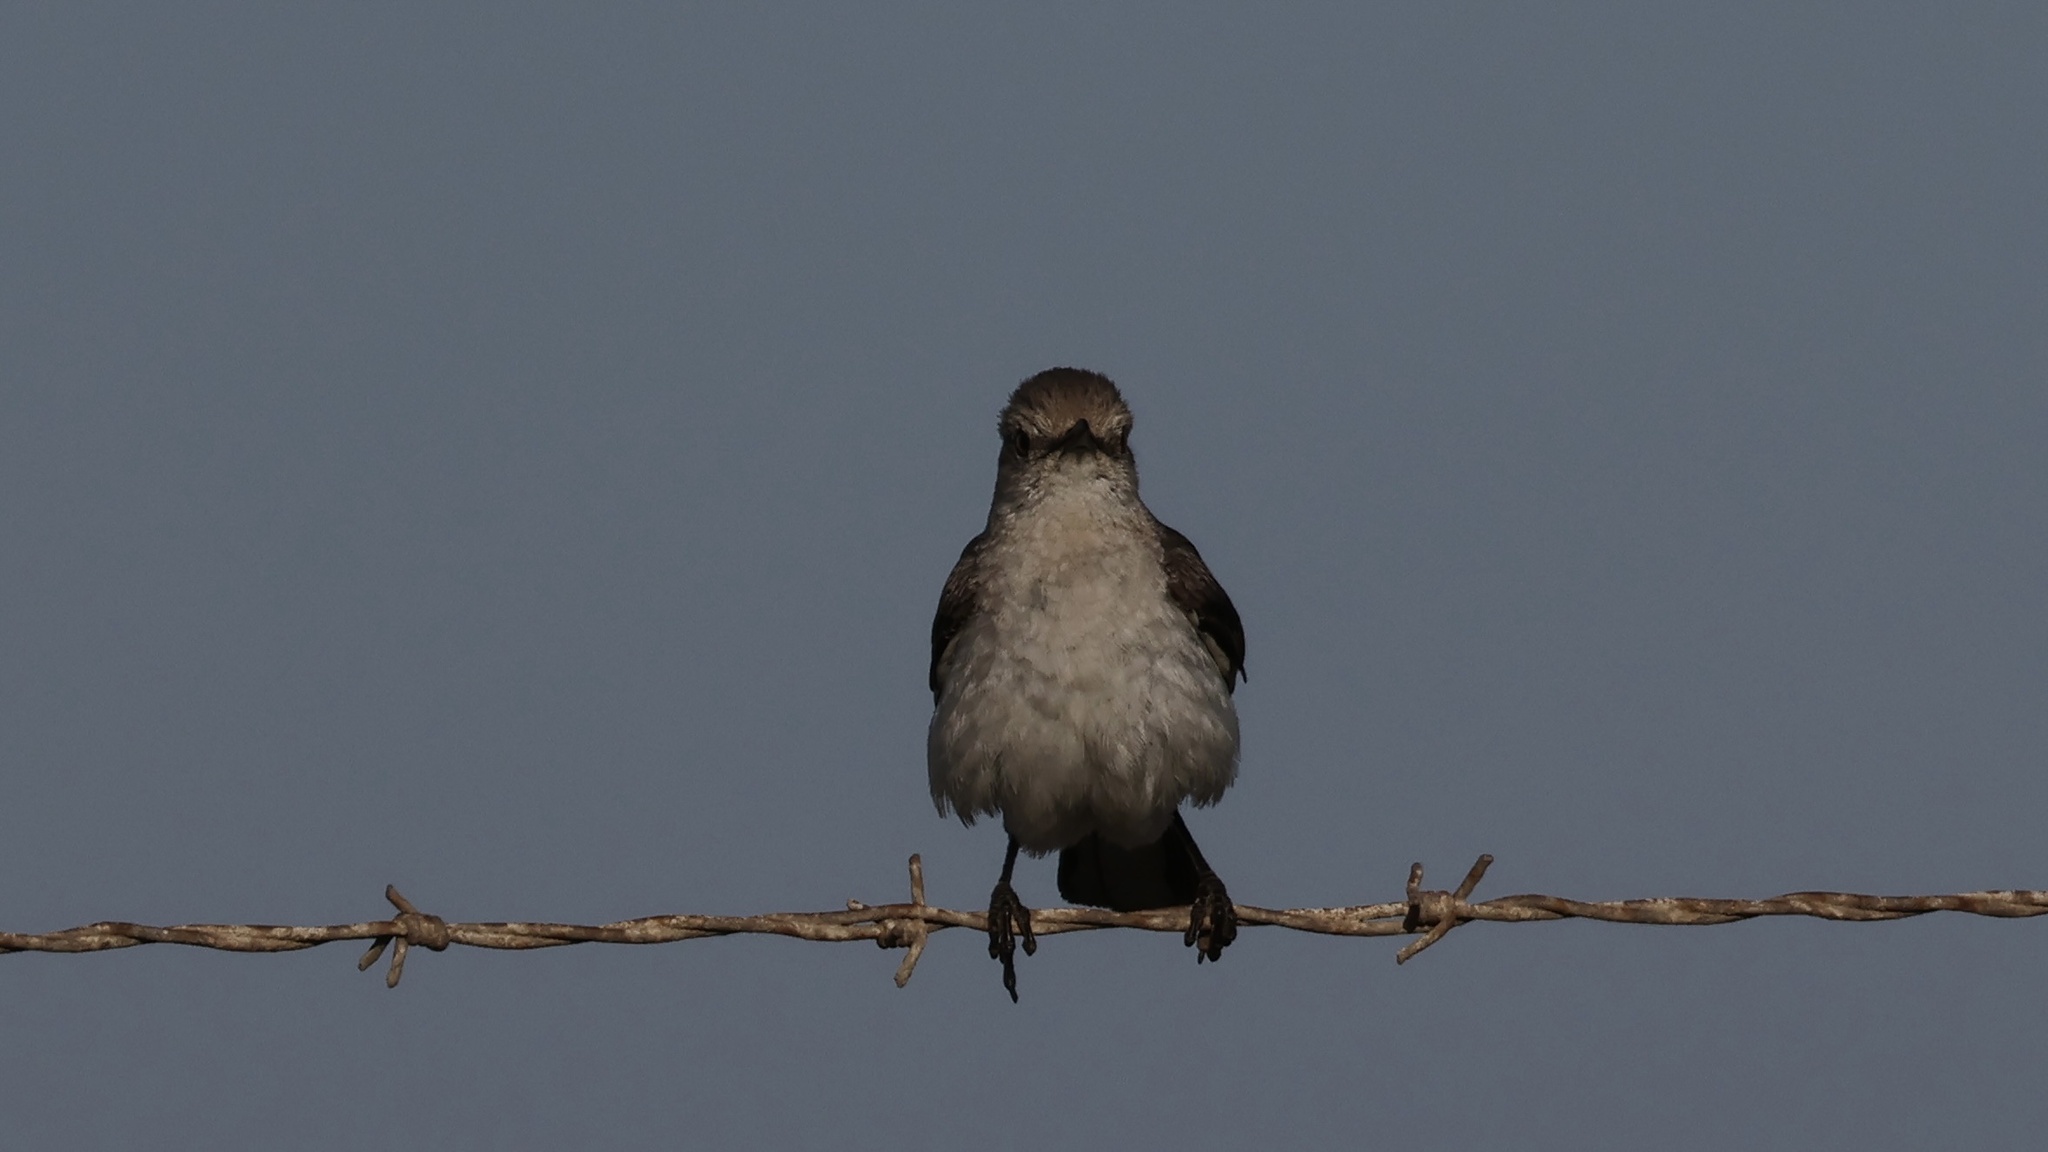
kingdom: Animalia
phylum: Chordata
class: Aves
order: Passeriformes
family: Mimidae
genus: Mimus
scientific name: Mimus polyglottos
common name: Northern mockingbird
